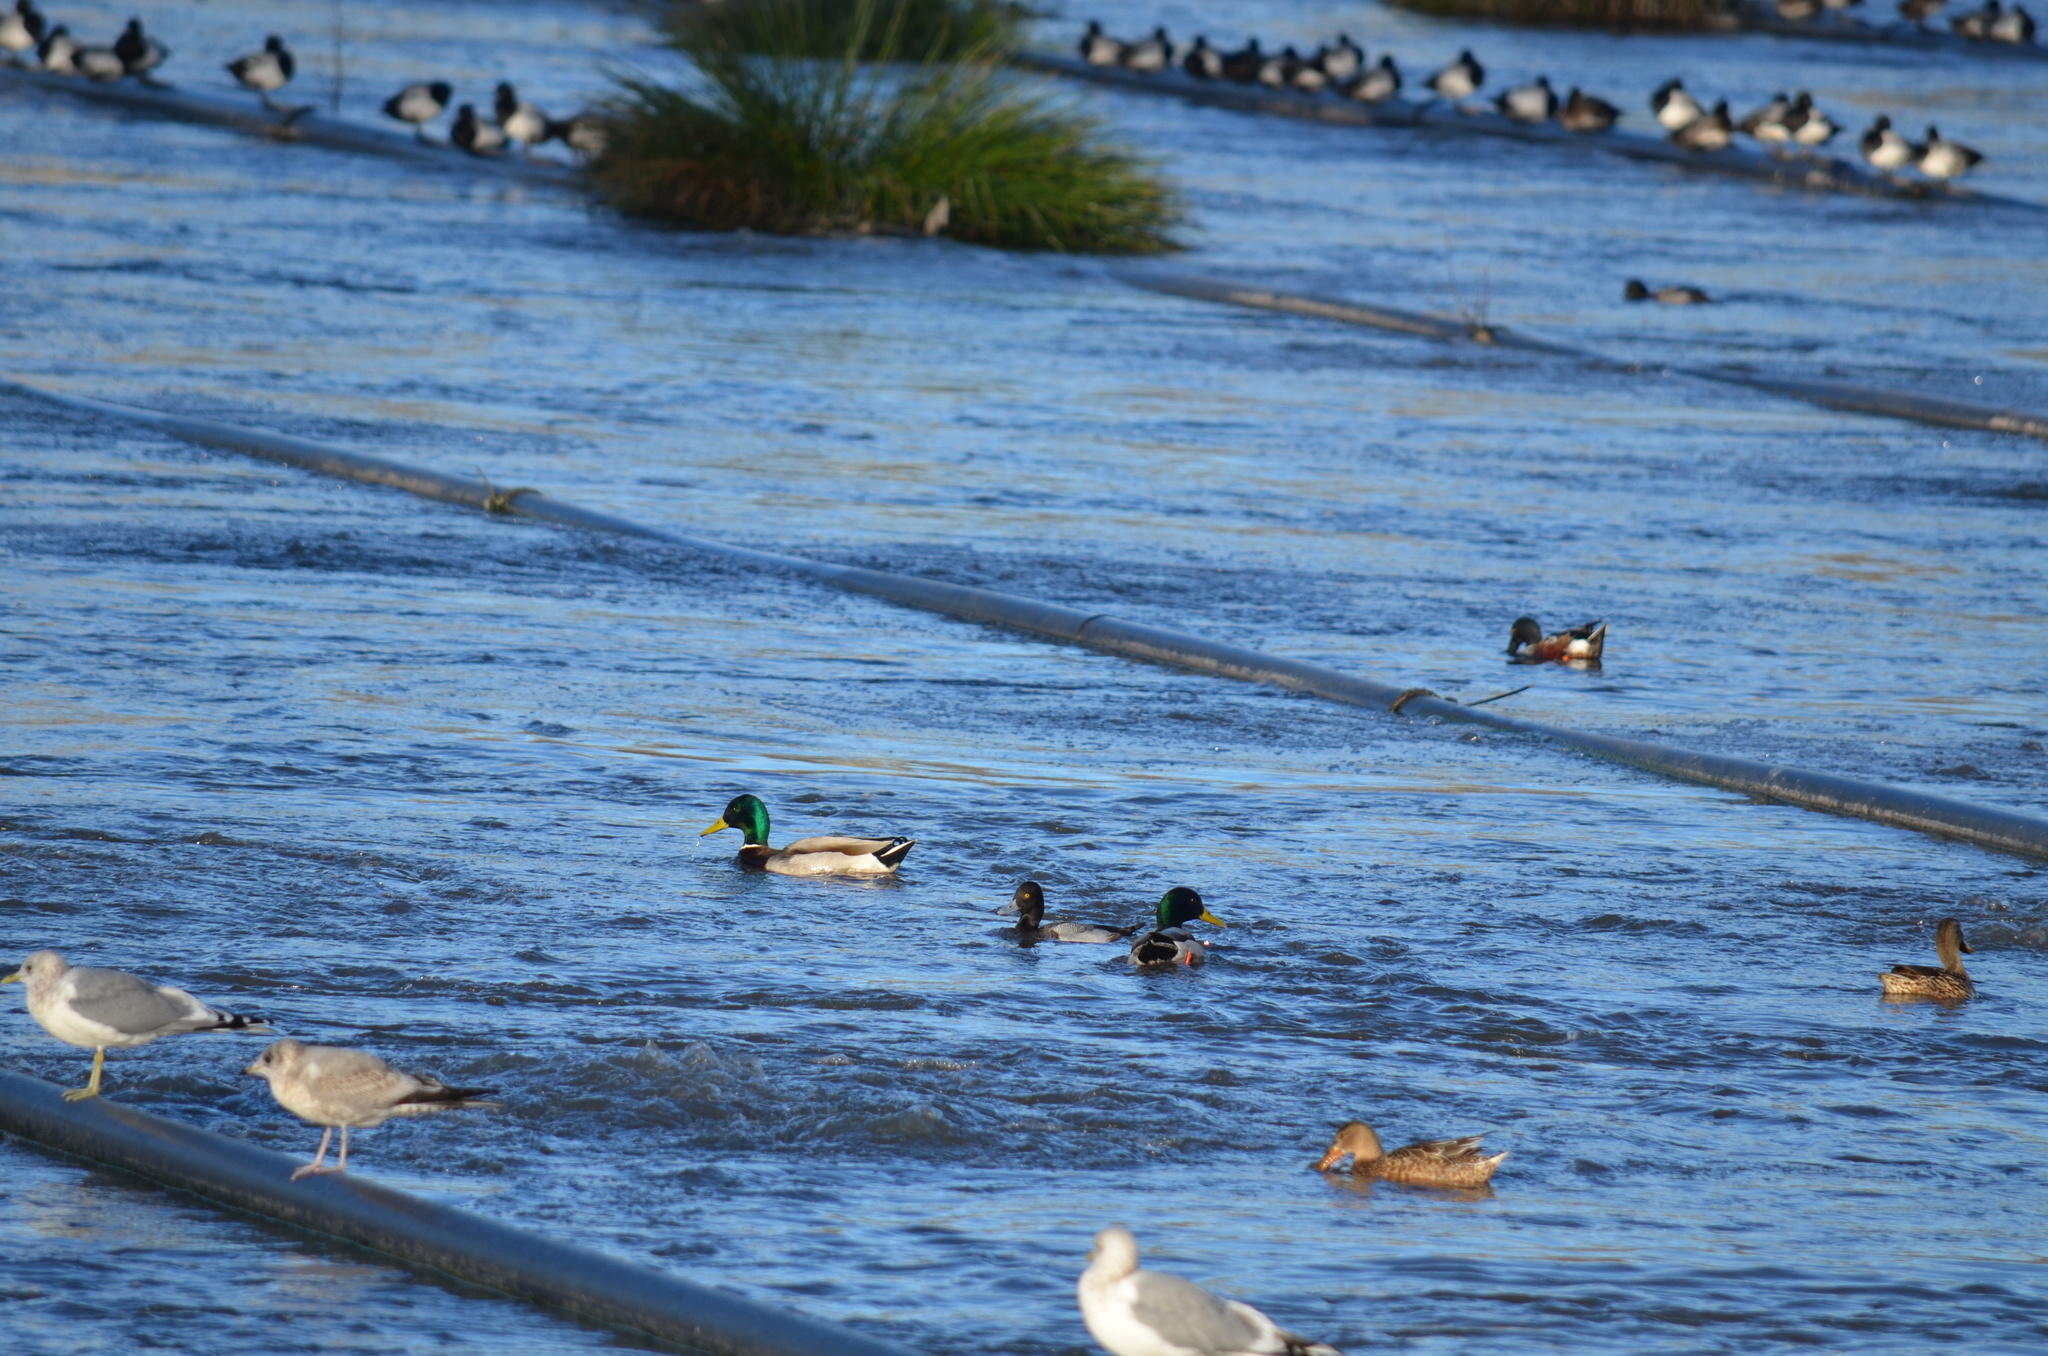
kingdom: Animalia
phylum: Chordata
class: Aves
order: Anseriformes
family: Anatidae
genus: Anas
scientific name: Anas platyrhynchos
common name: Mallard
